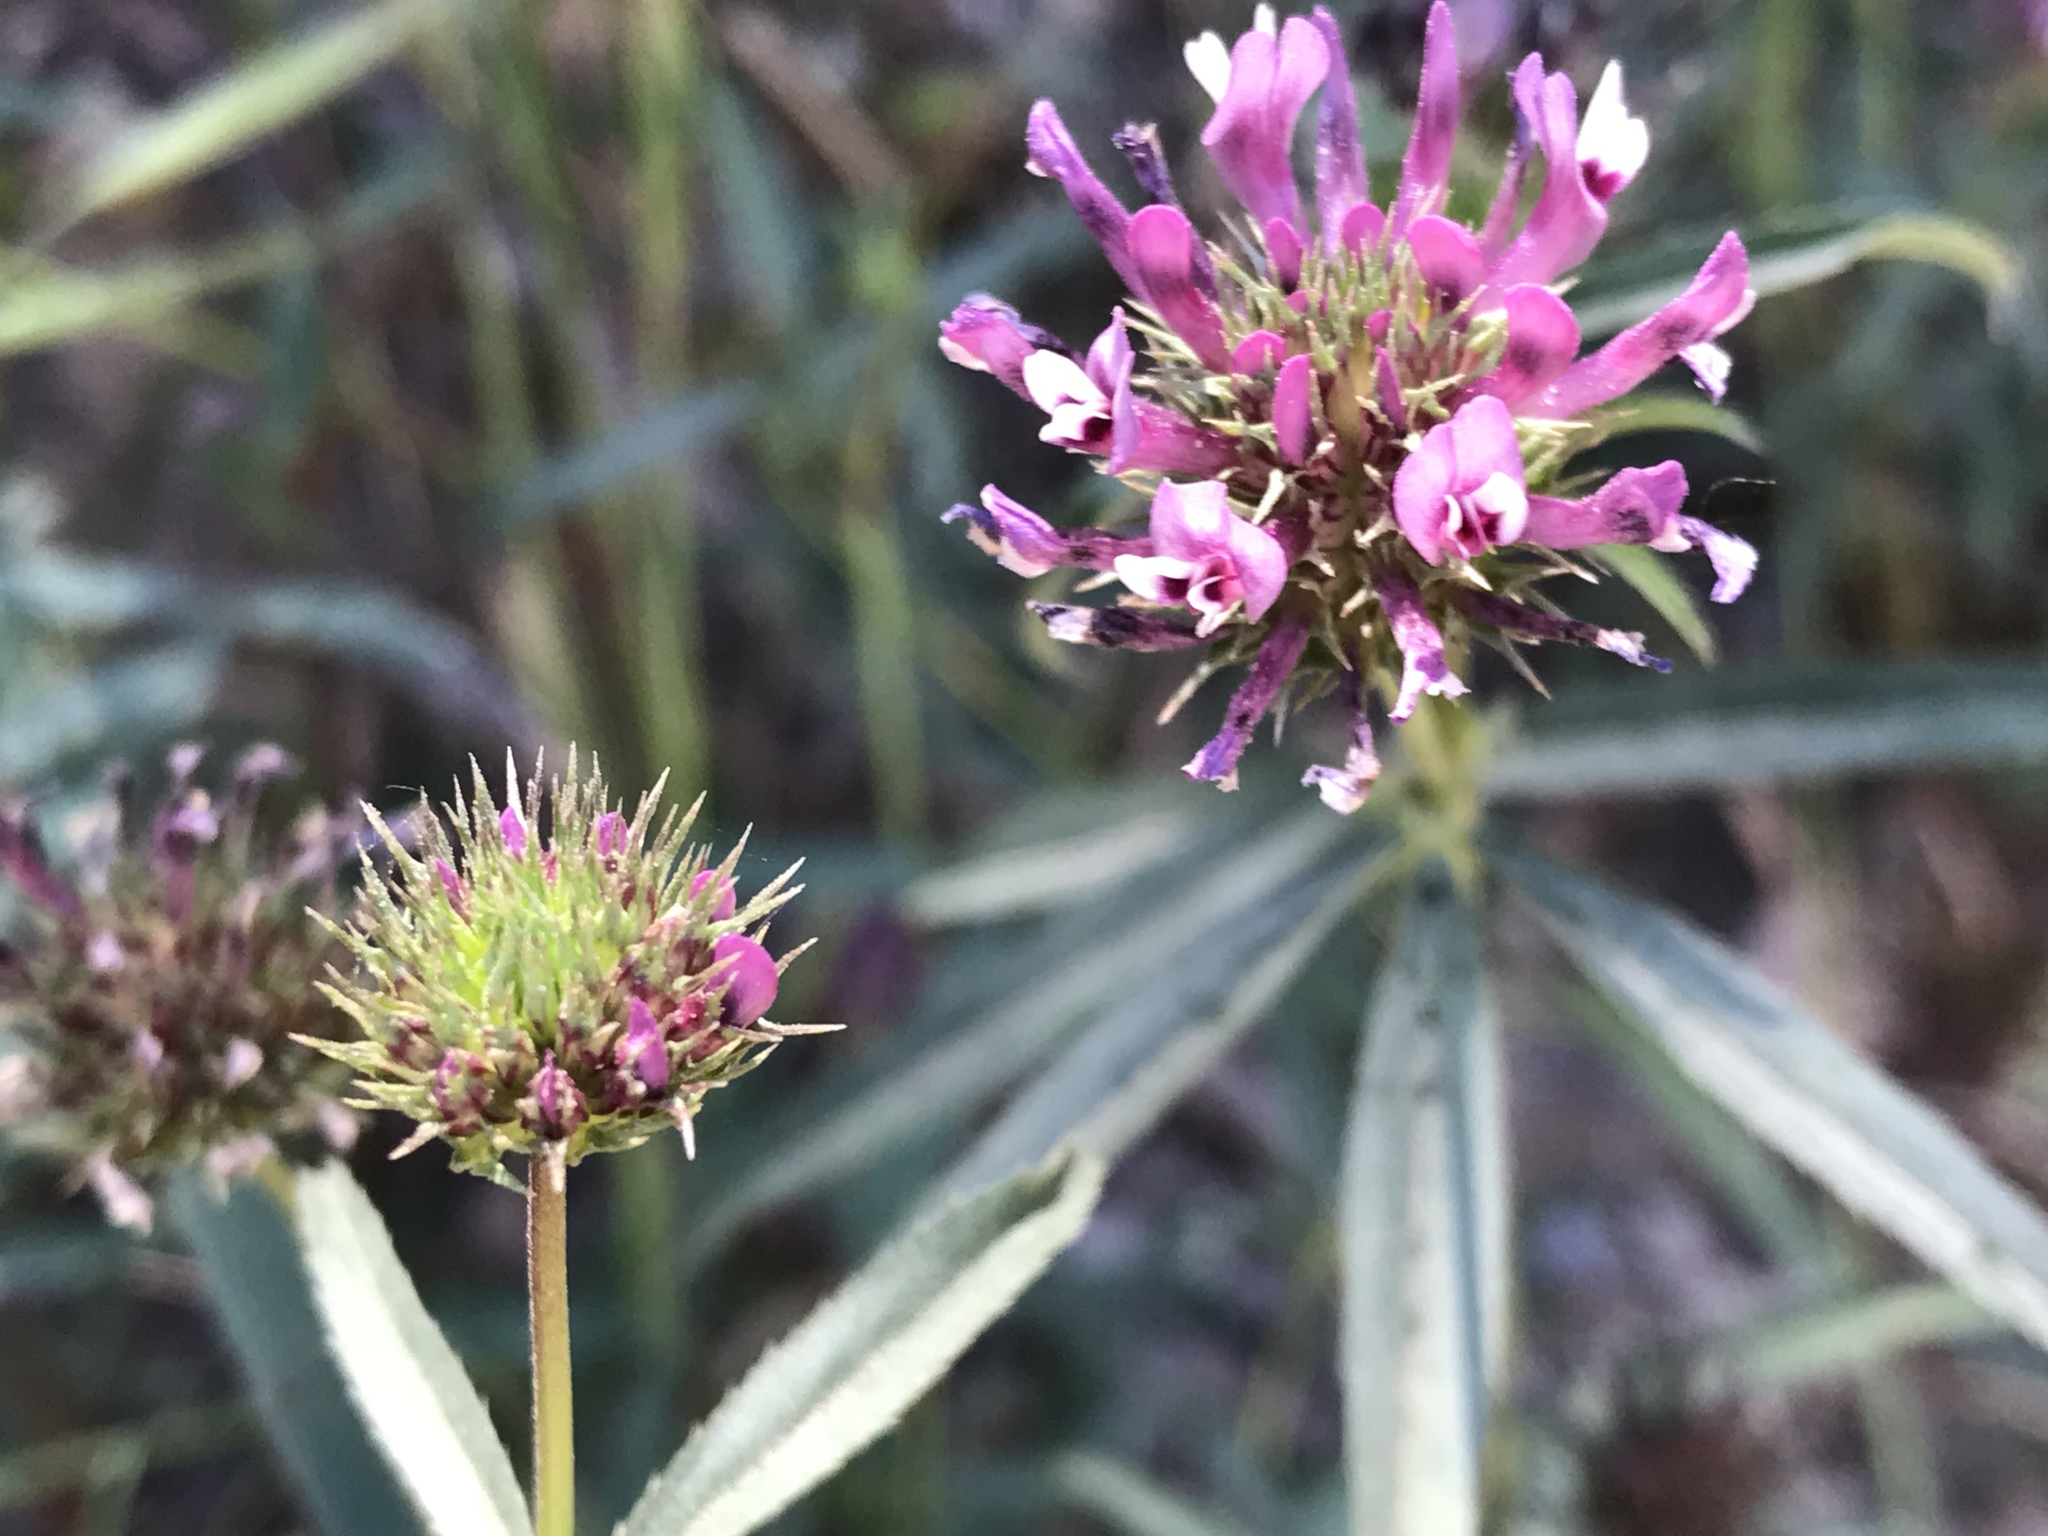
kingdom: Plantae
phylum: Tracheophyta
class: Magnoliopsida
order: Fabales
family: Fabaceae
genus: Trifolium
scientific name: Trifolium willdenovii
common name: Tomcat clover
